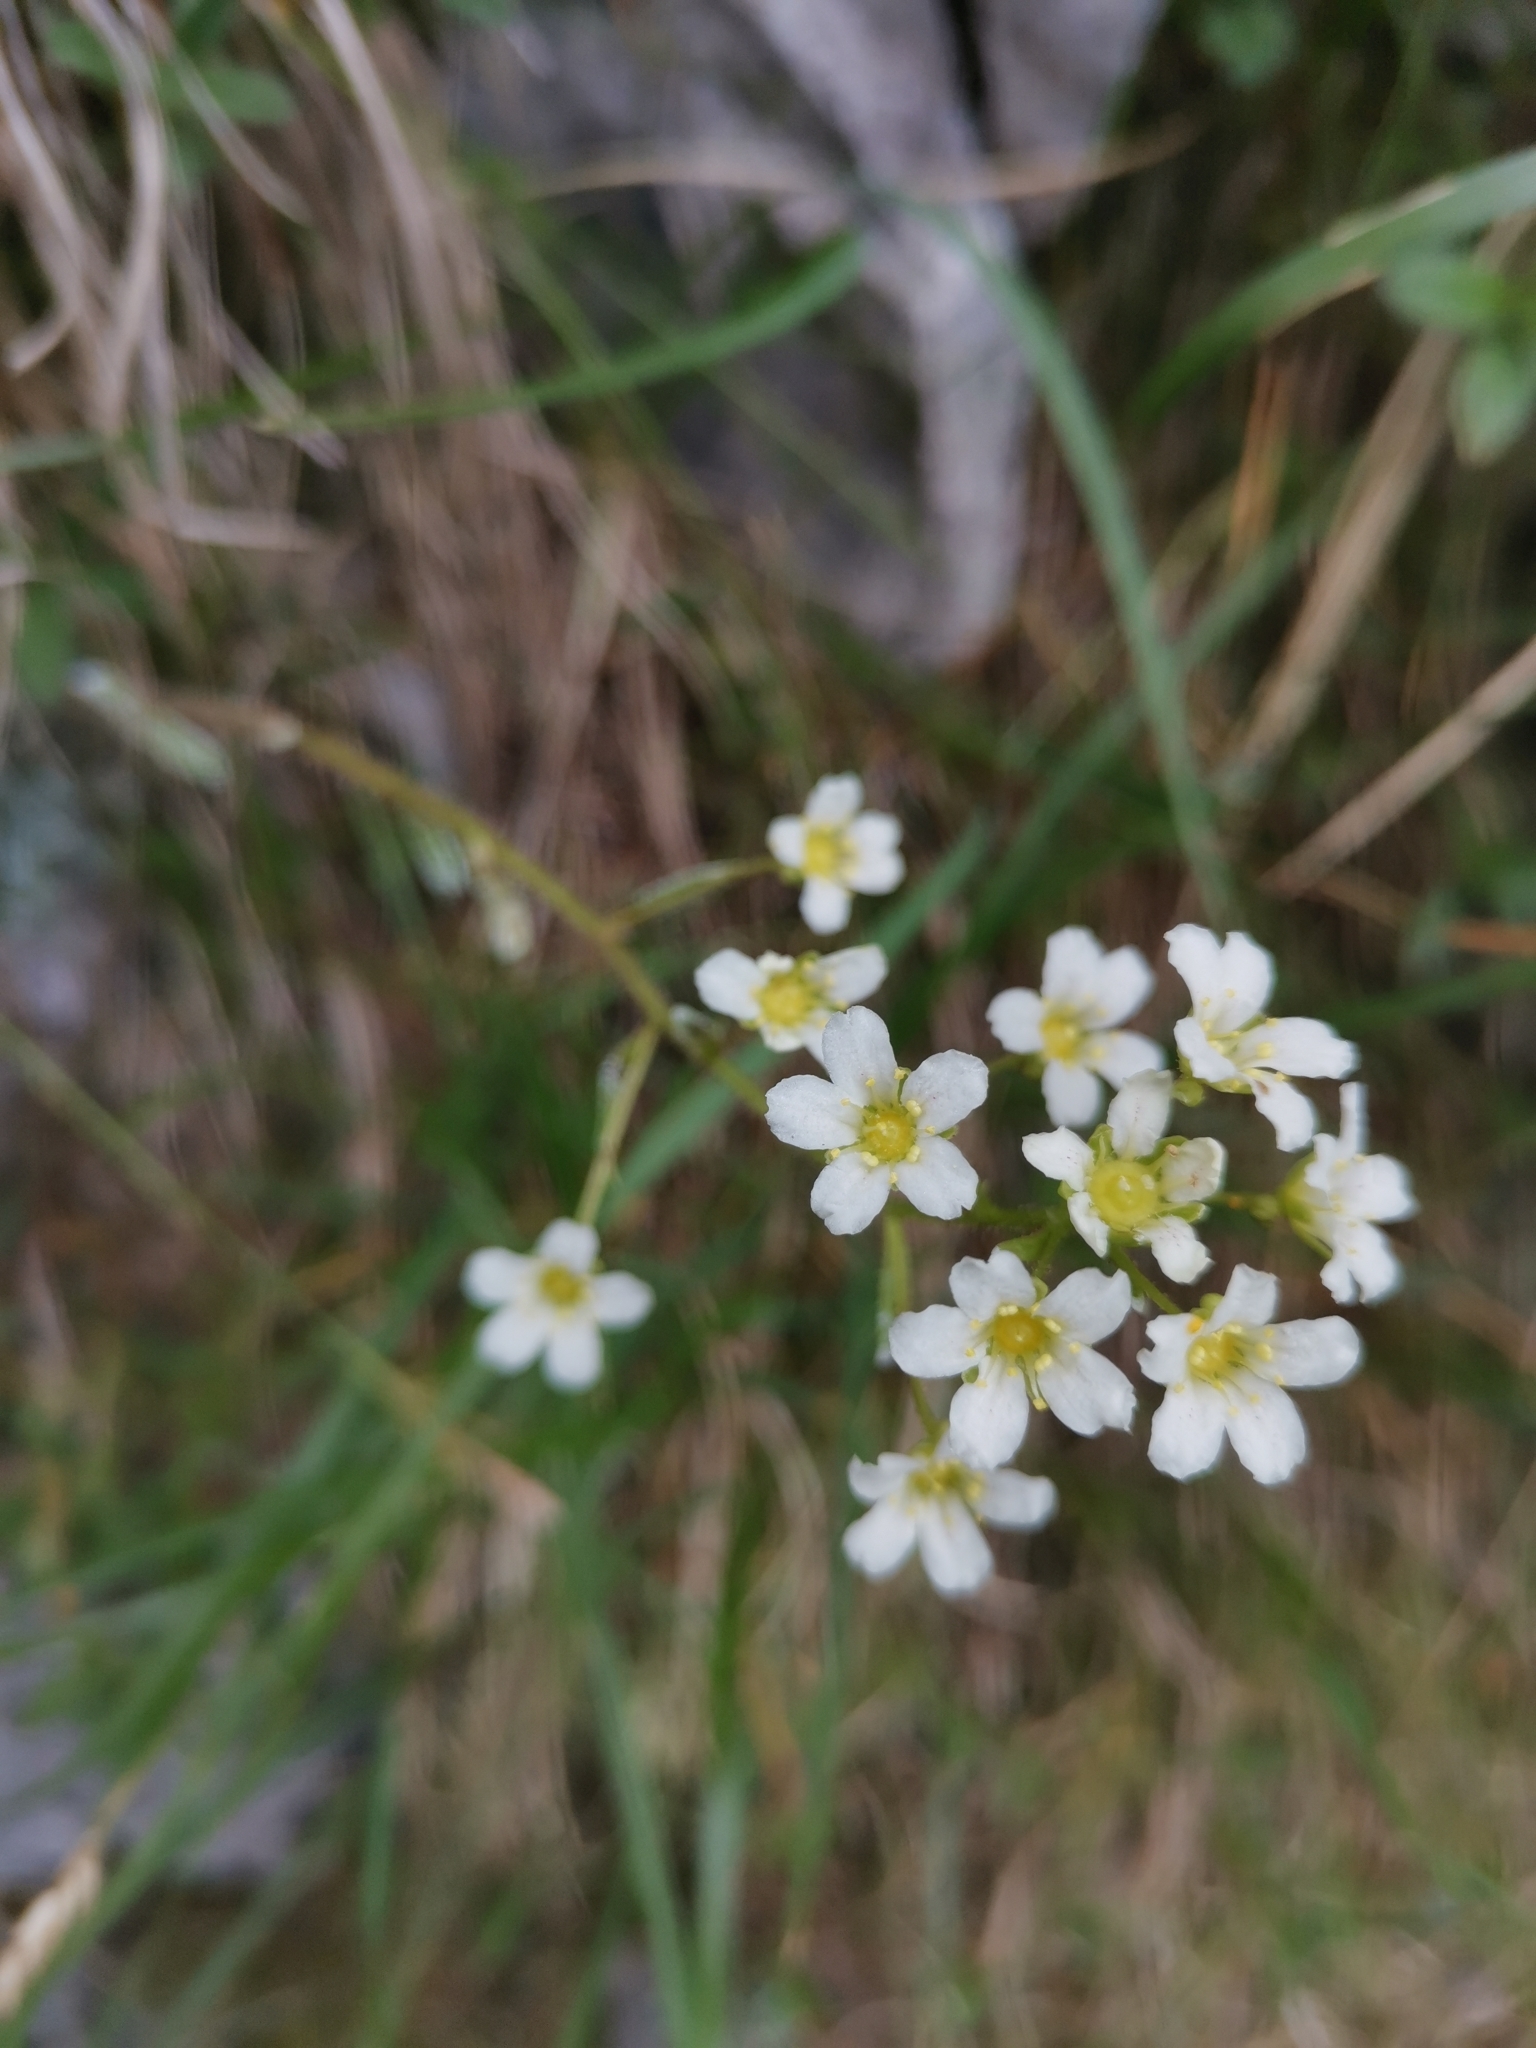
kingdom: Plantae
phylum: Tracheophyta
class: Magnoliopsida
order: Saxifragales
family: Saxifragaceae
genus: Saxifraga
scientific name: Saxifraga crustata
